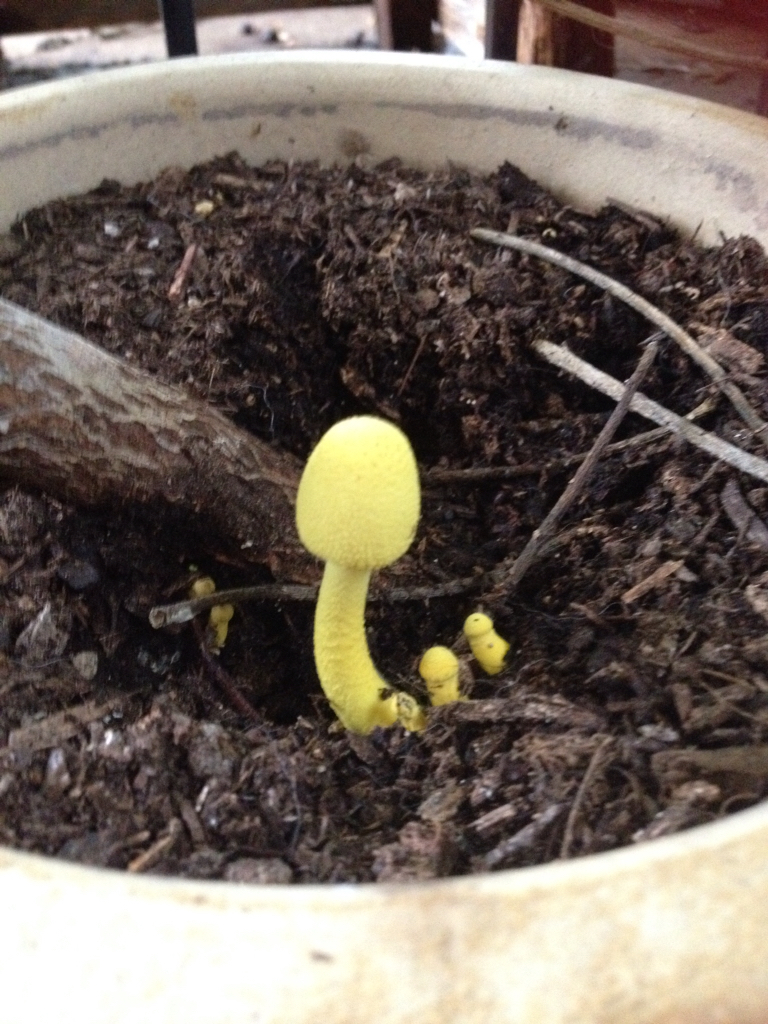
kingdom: Fungi
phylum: Basidiomycota
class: Agaricomycetes
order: Agaricales
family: Agaricaceae
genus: Leucocoprinus
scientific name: Leucocoprinus birnbaumii
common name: Plantpot dapperling
